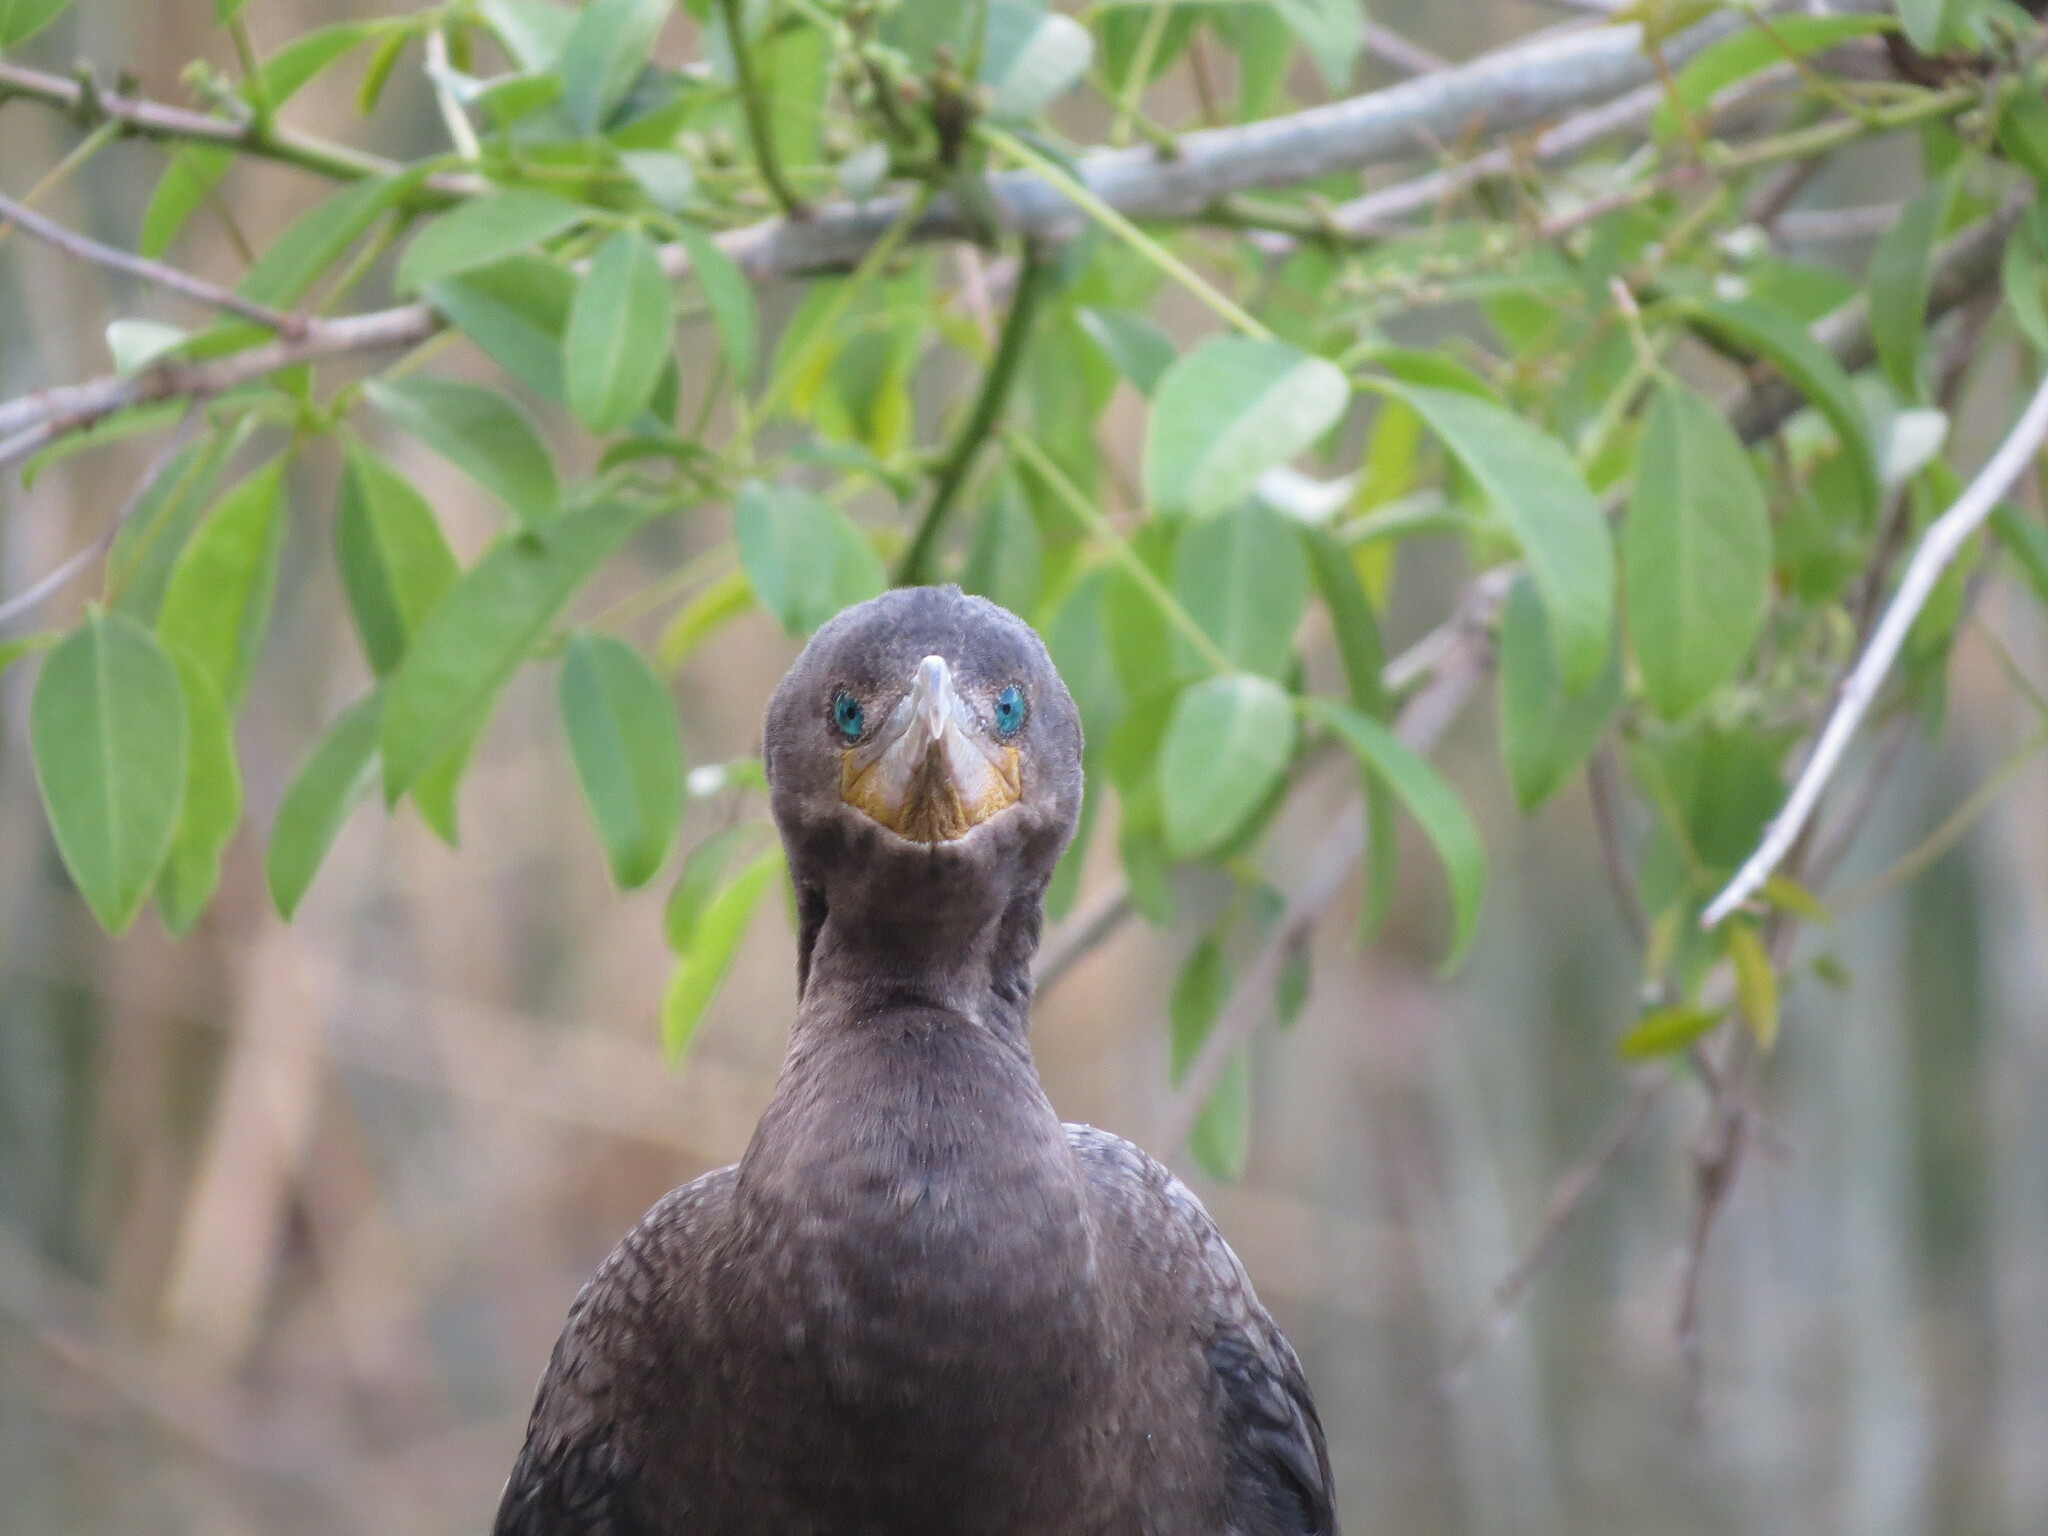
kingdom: Animalia
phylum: Chordata
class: Aves
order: Suliformes
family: Phalacrocoracidae
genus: Phalacrocorax
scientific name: Phalacrocorax brasilianus
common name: Neotropic cormorant
